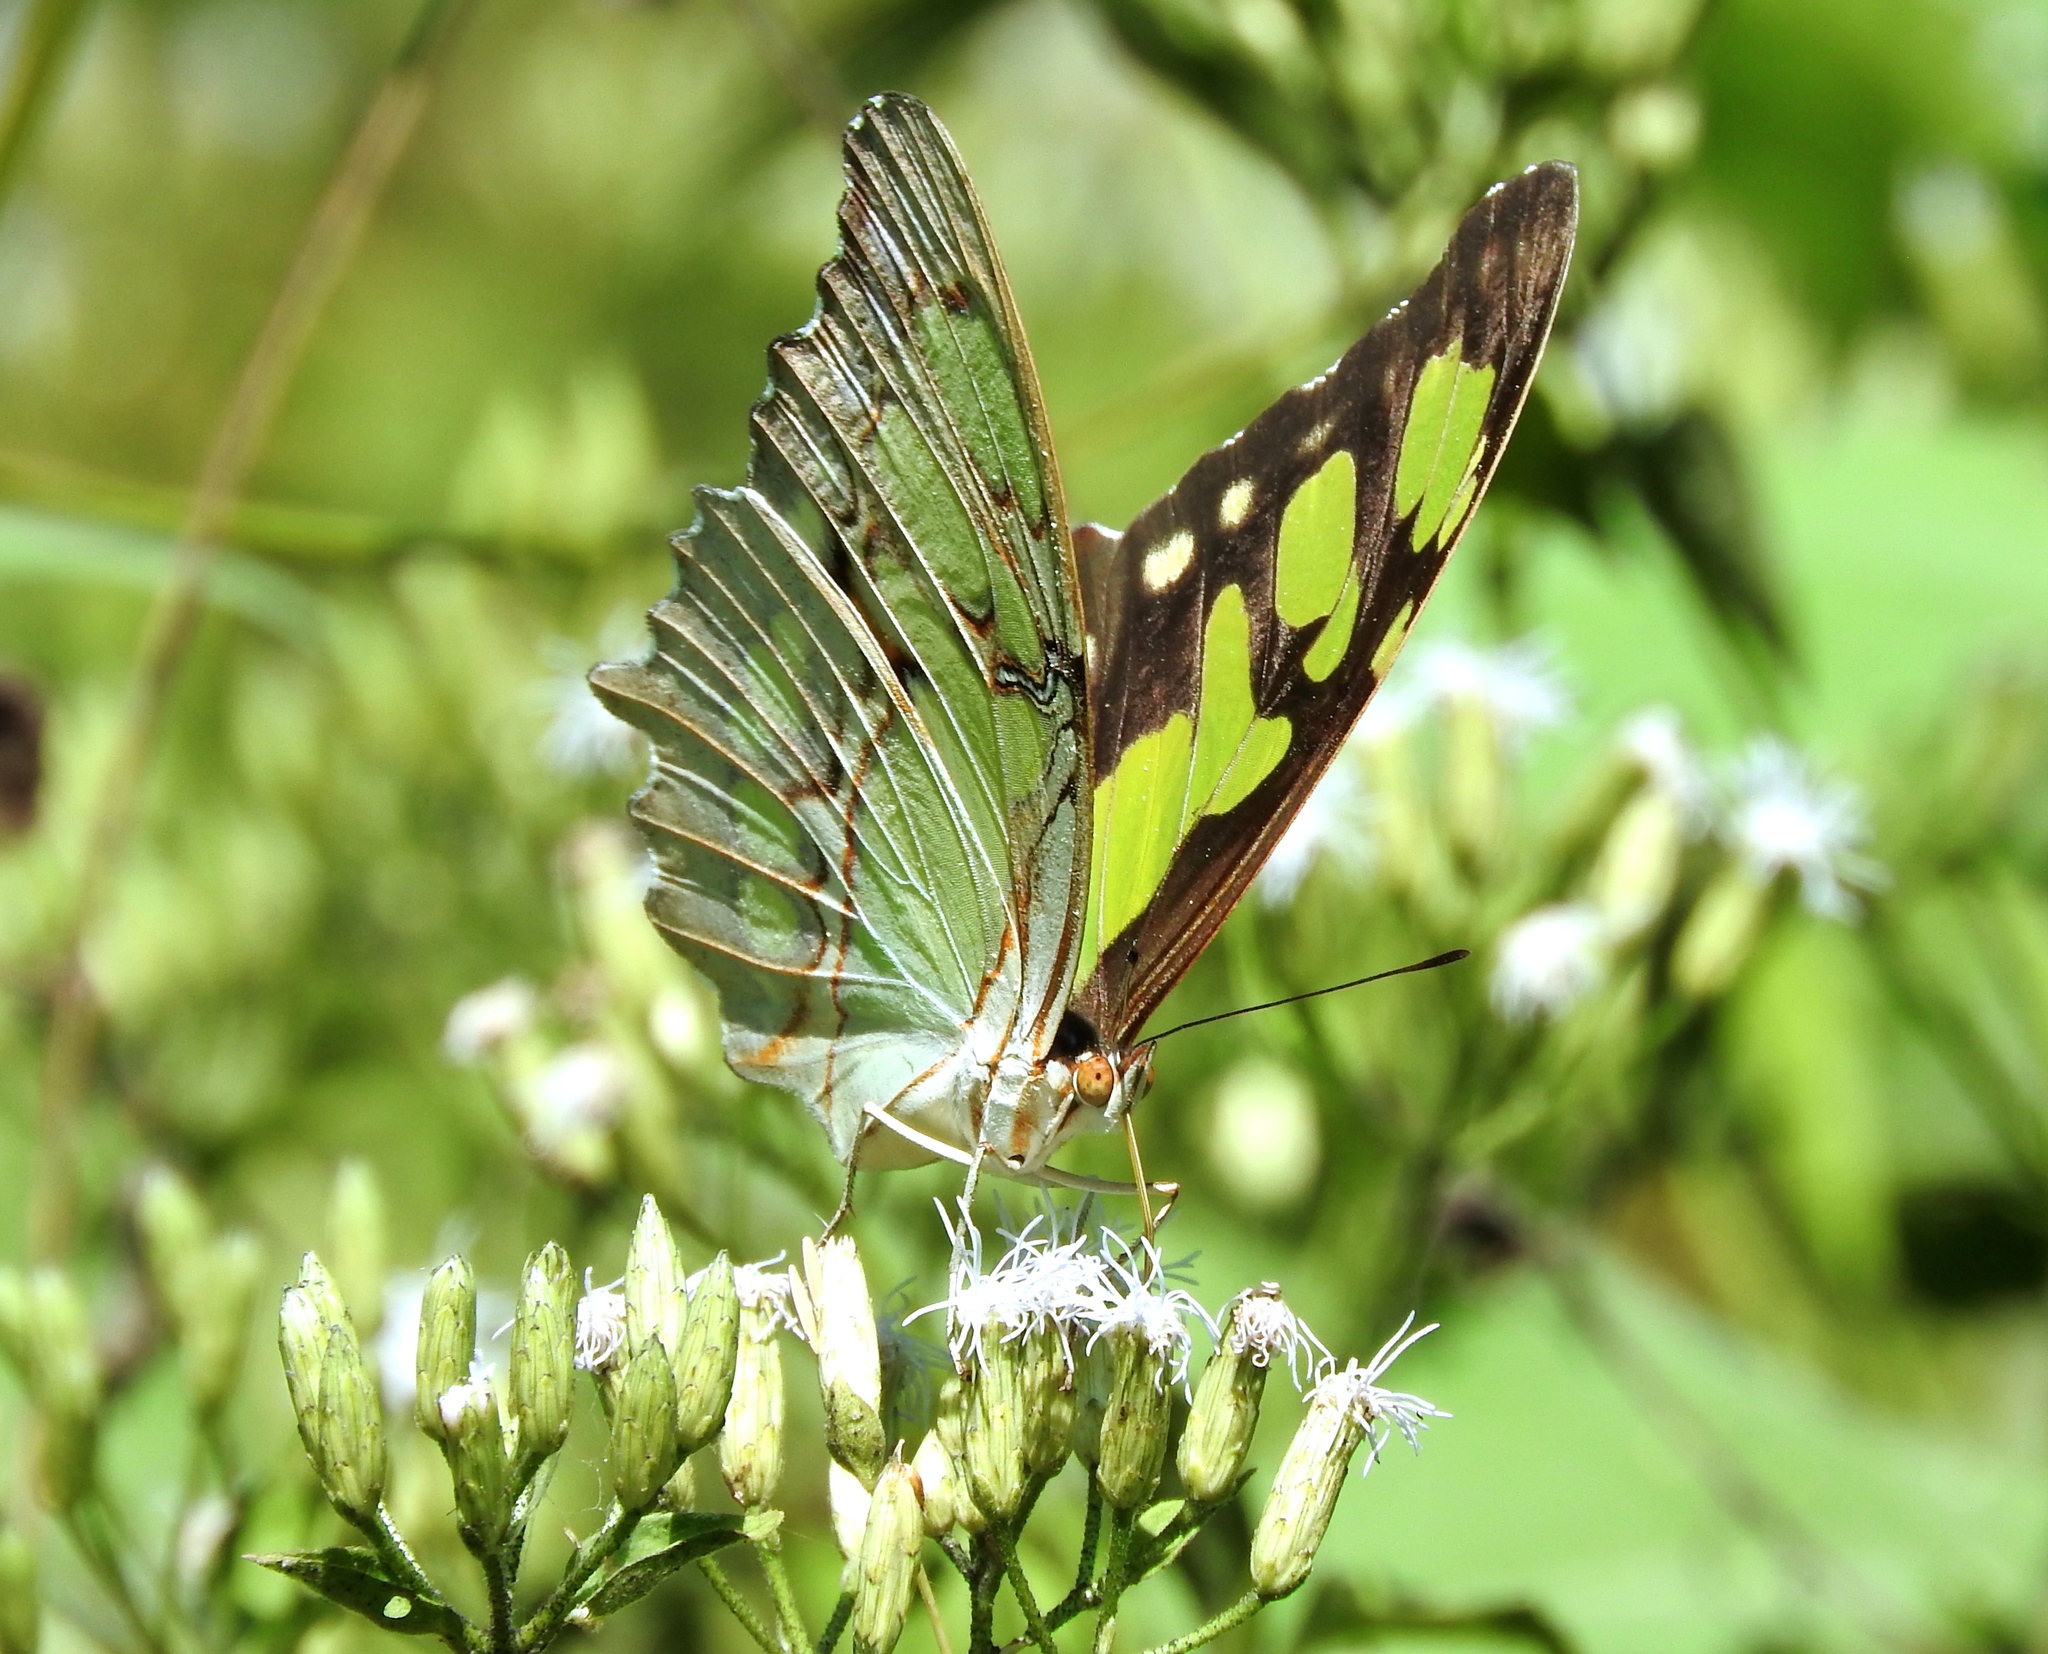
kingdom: Plantae
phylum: Tracheophyta
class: Magnoliopsida
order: Asterales
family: Asteraceae
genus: Chromolaena
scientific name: Chromolaena odorata
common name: Siamweed
